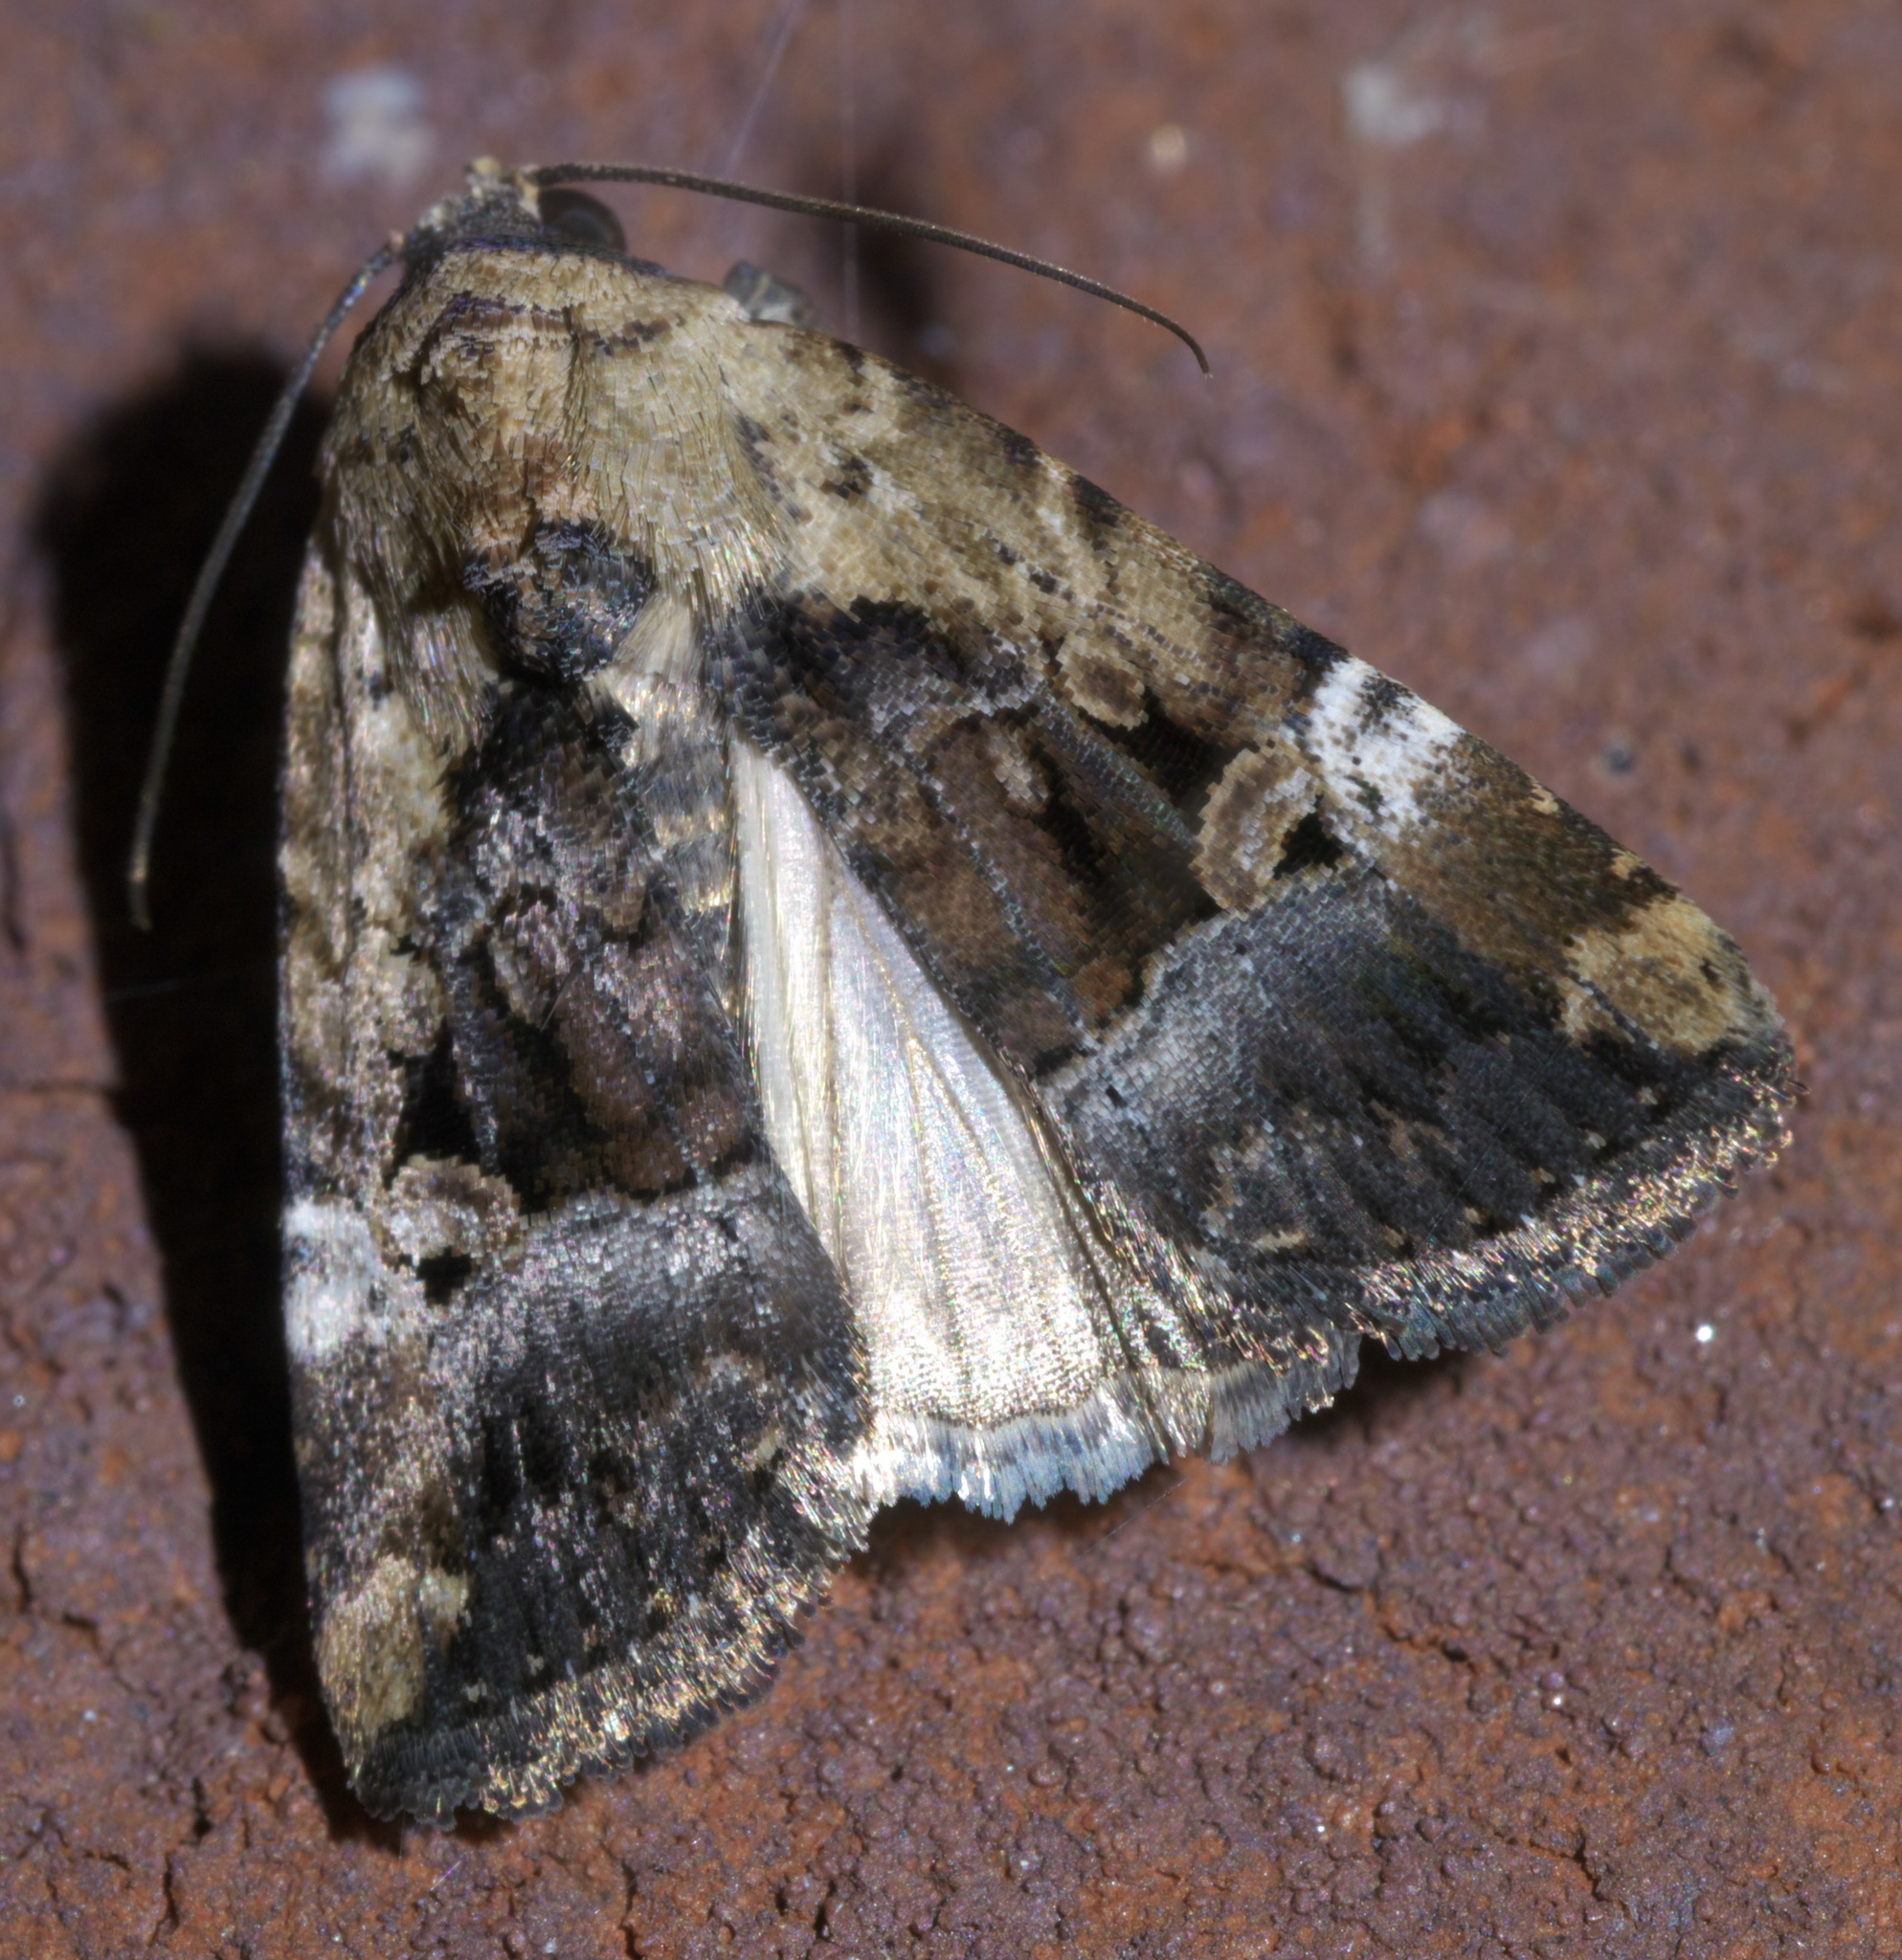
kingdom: Animalia
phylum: Arthropoda
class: Insecta
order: Lepidoptera
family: Noctuidae
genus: Elaphria
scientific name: Elaphria chalcedonia
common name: Chalcedony midget
